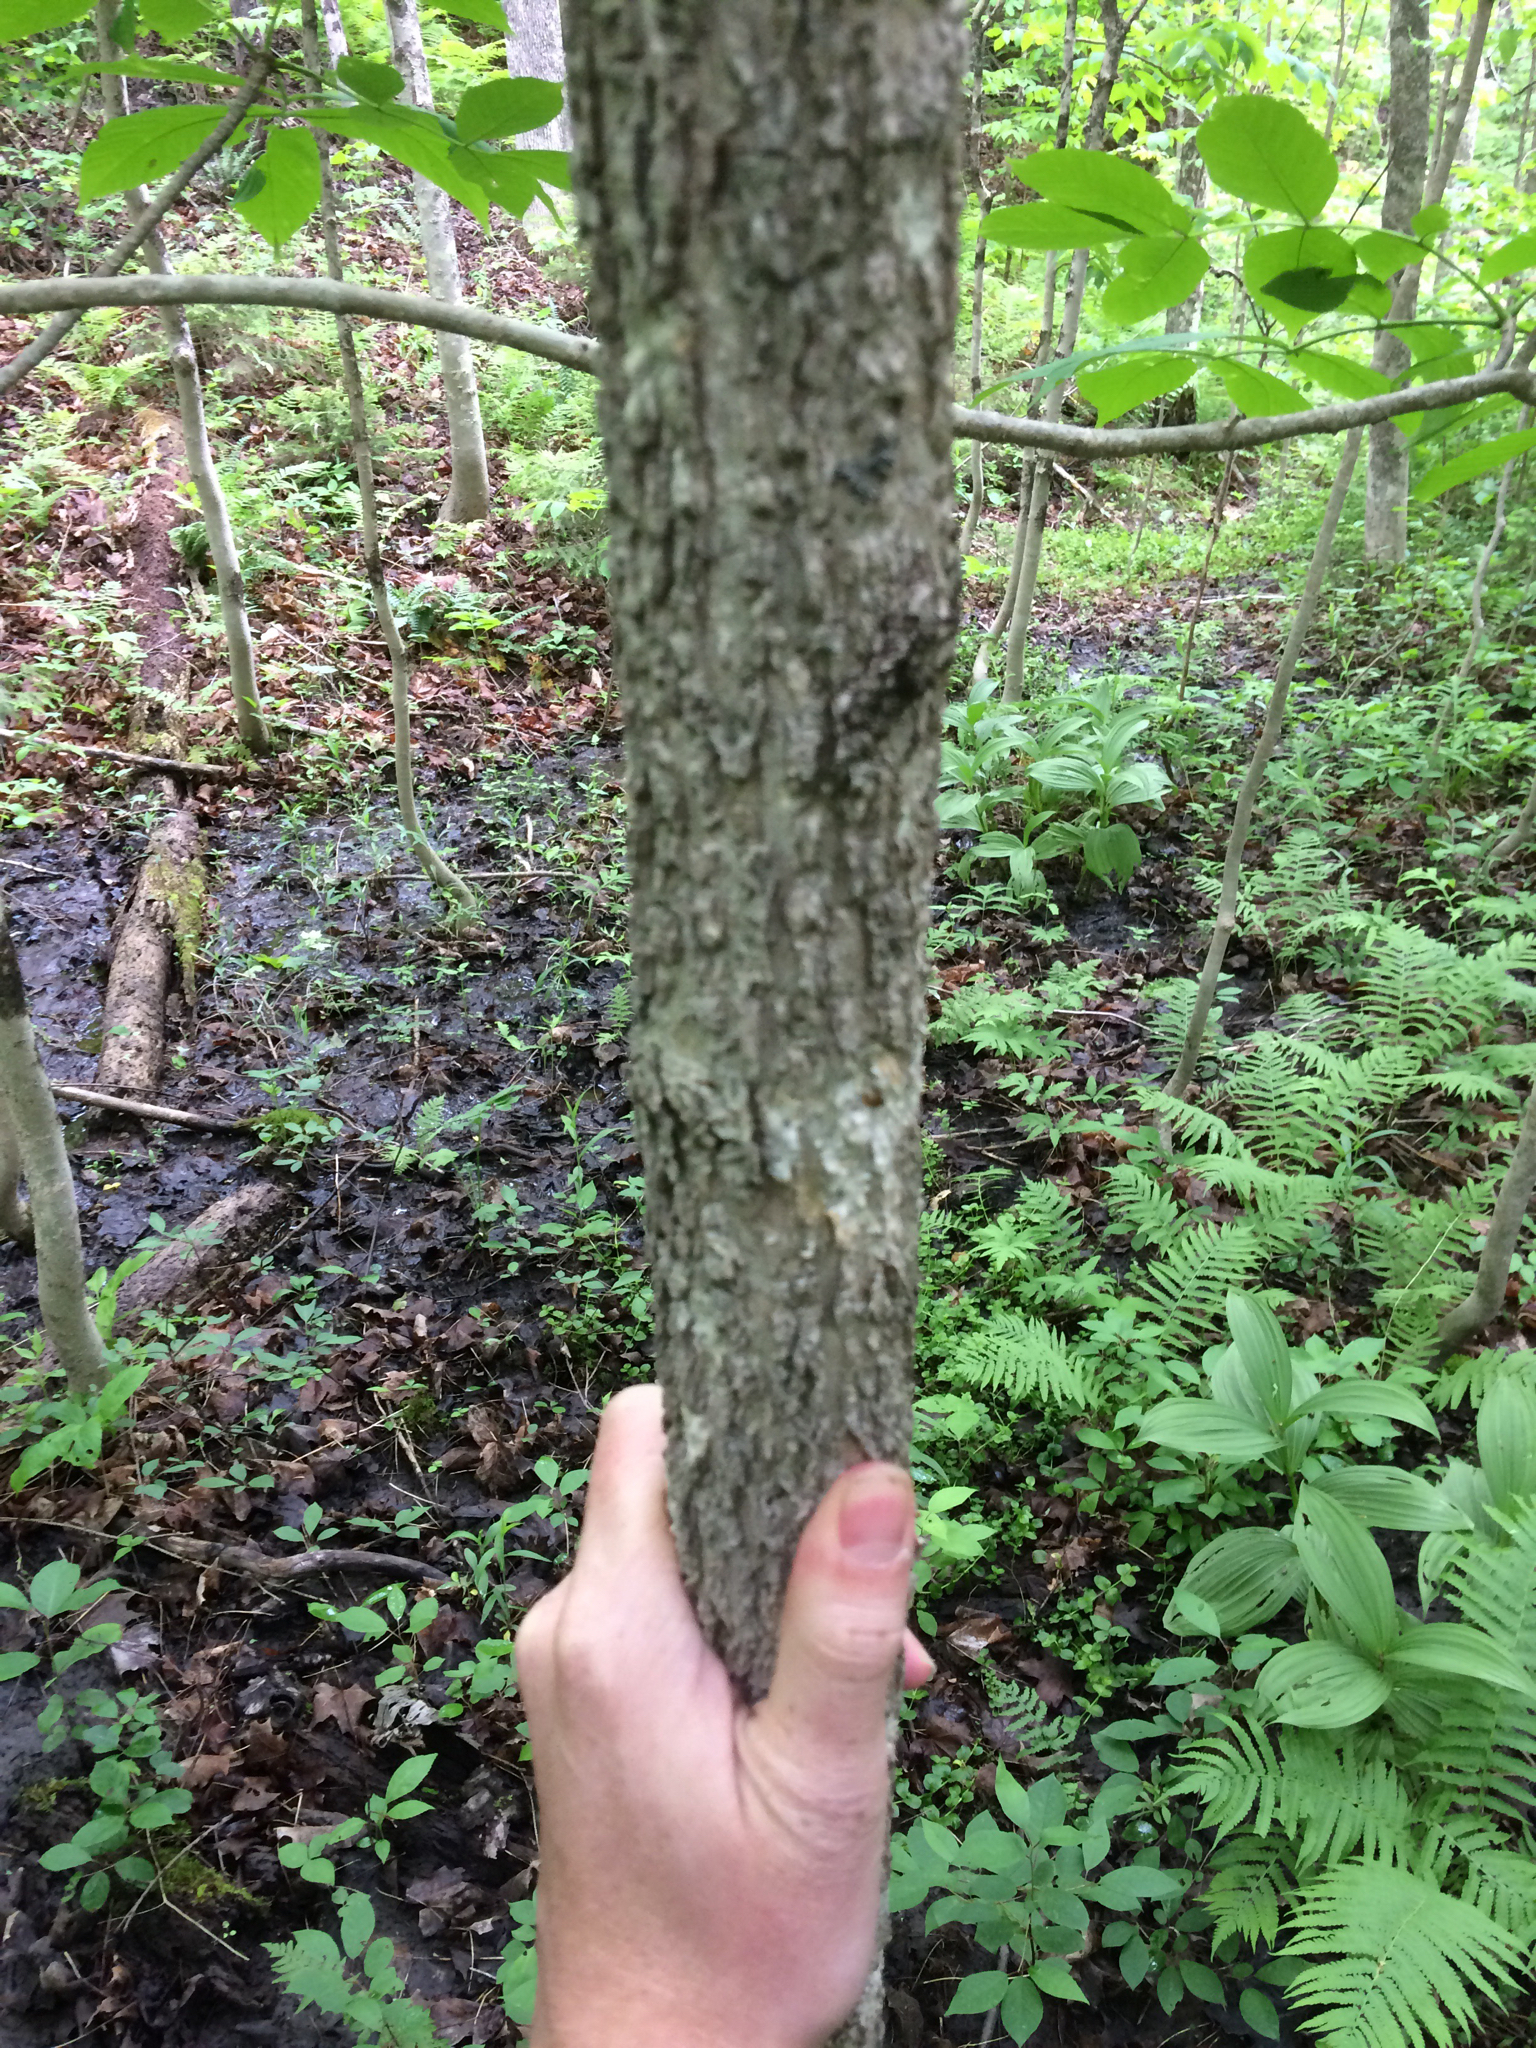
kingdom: Plantae
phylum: Tracheophyta
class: Magnoliopsida
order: Lamiales
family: Oleaceae
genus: Fraxinus
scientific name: Fraxinus nigra
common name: Black ash
